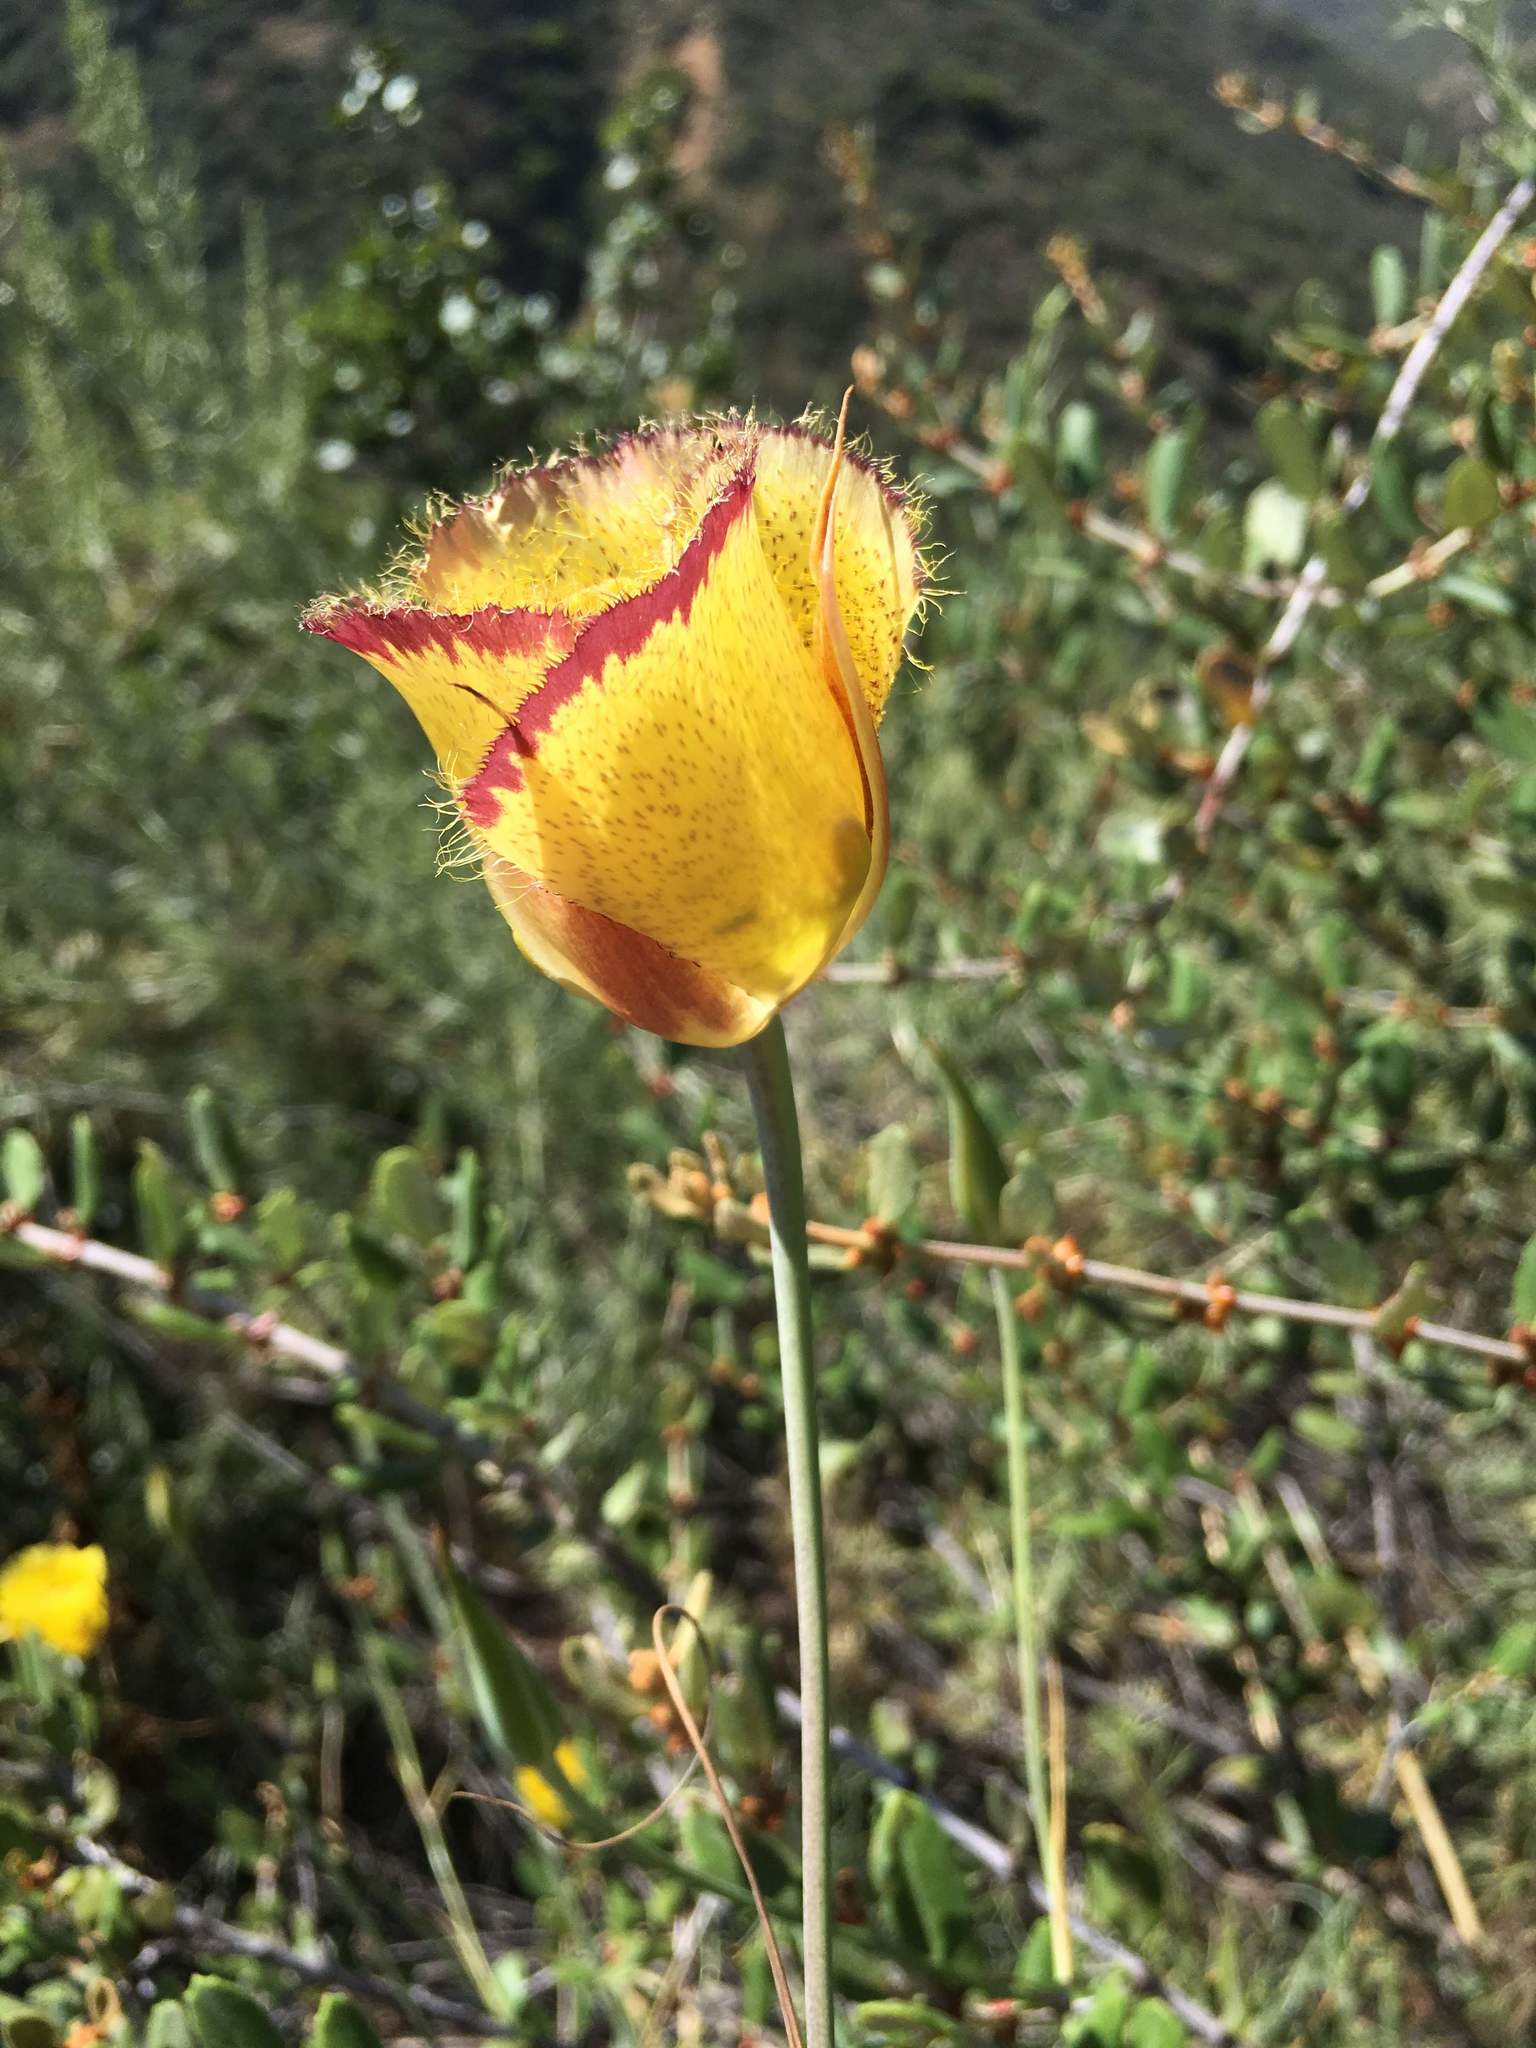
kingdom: Plantae
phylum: Tracheophyta
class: Liliopsida
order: Liliales
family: Liliaceae
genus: Calochortus
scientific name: Calochortus weedii
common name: Weed's mariposa-lily
